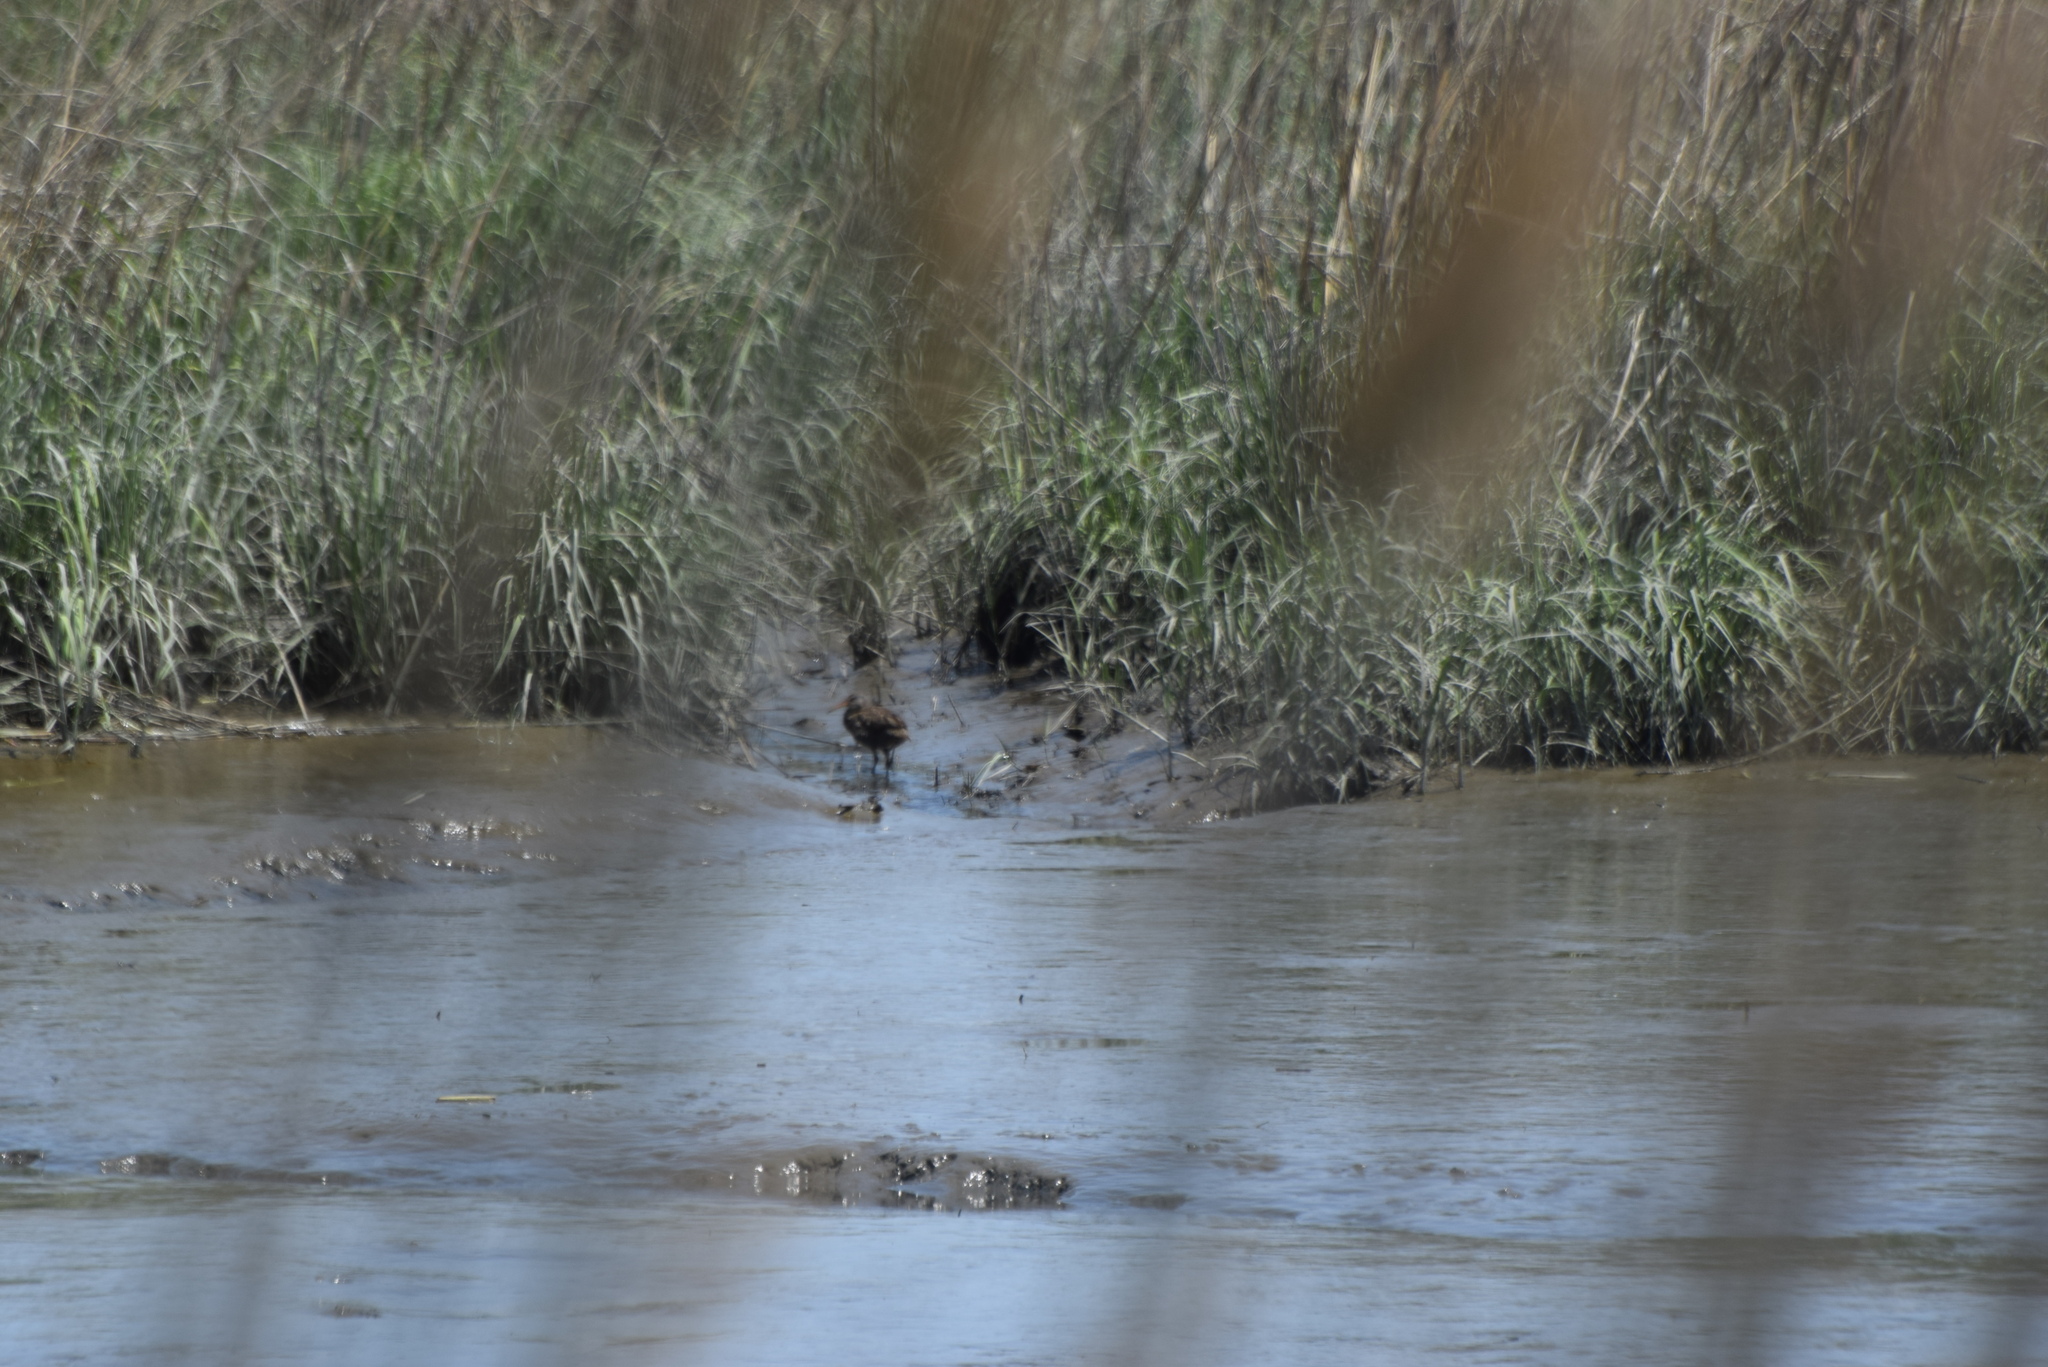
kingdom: Animalia
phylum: Chordata
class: Aves
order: Gruiformes
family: Rallidae
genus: Rallus
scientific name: Rallus crepitans
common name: Clapper rail
